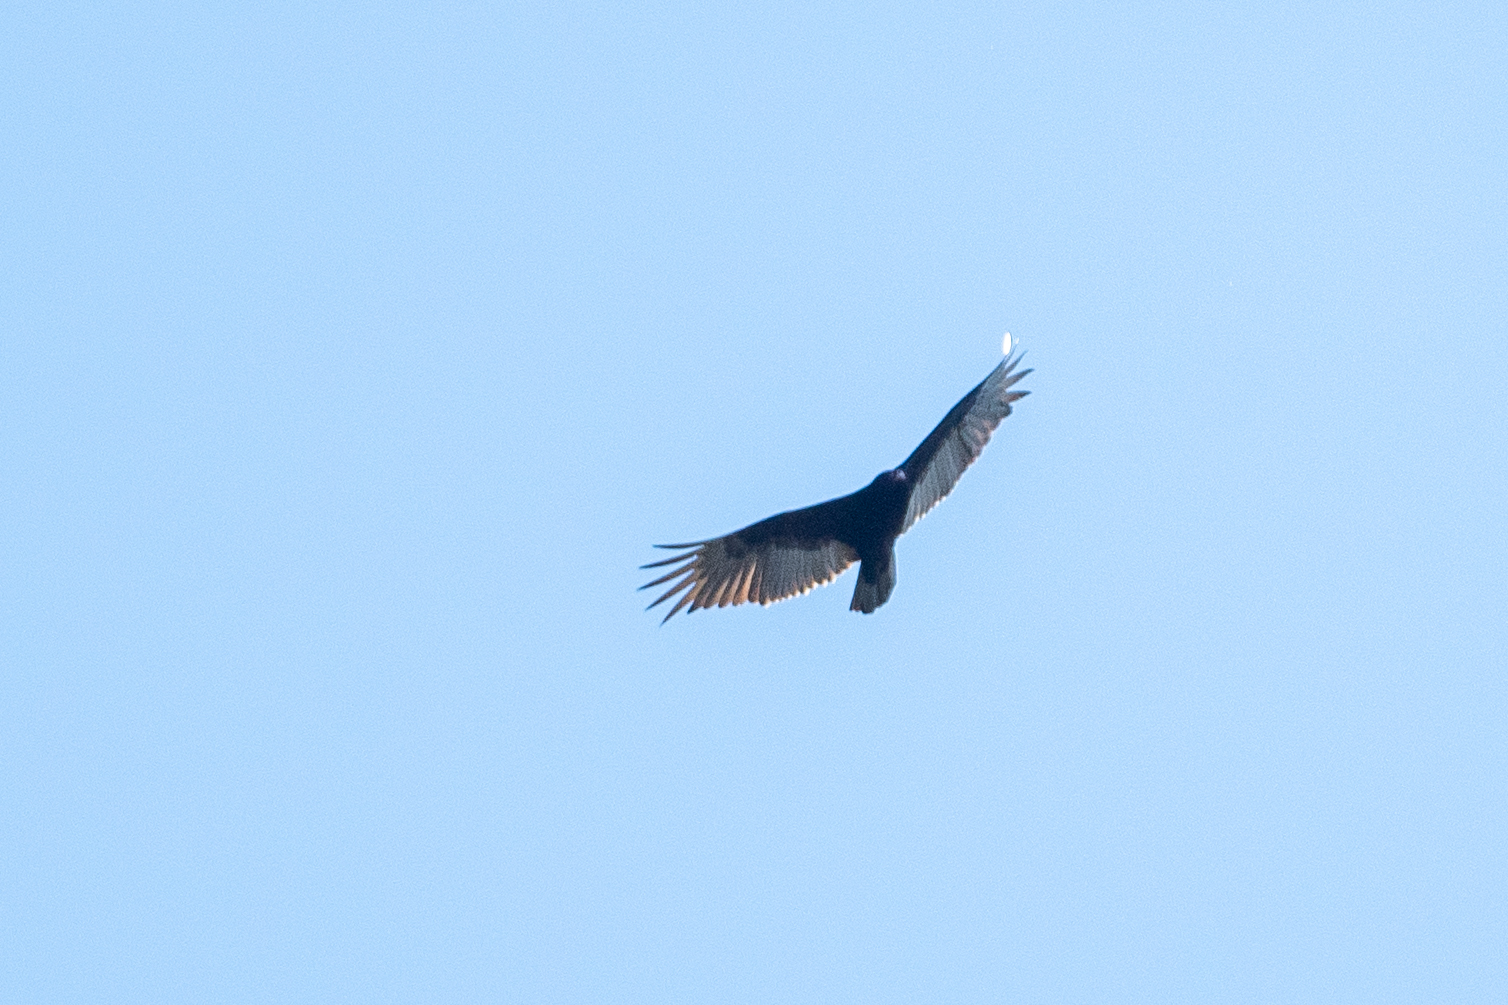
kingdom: Animalia
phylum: Chordata
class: Aves
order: Accipitriformes
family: Cathartidae
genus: Cathartes
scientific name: Cathartes aura
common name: Turkey vulture
